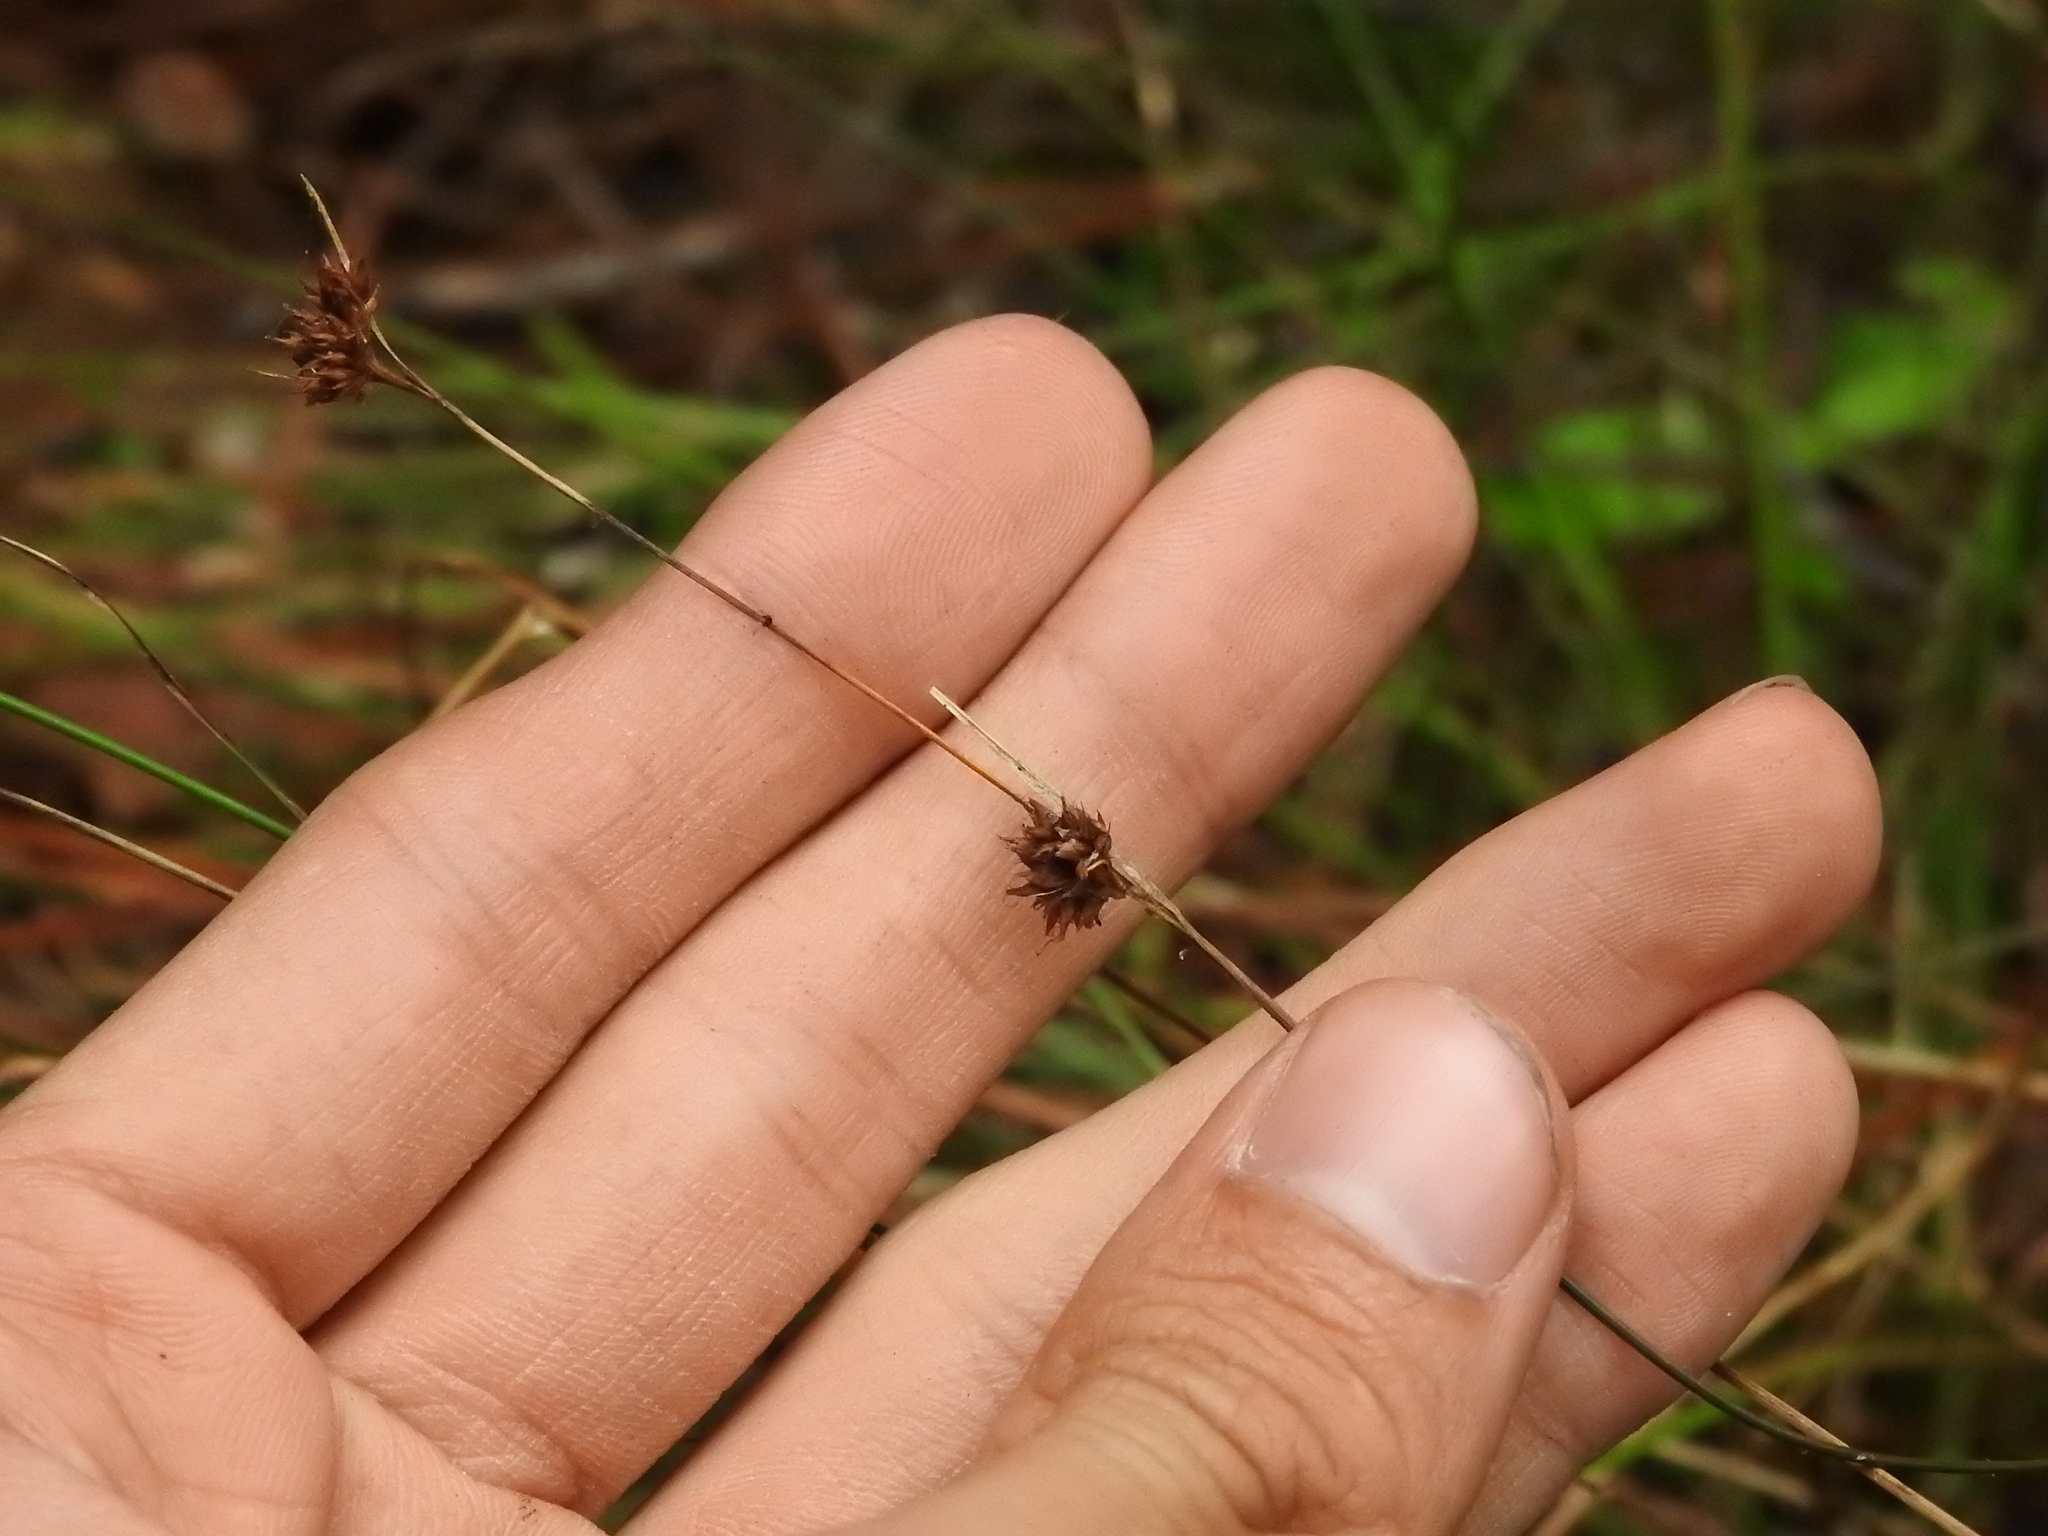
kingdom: Plantae
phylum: Tracheophyta
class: Liliopsida
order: Poales
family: Cyperaceae
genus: Rhynchospora
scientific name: Rhynchospora fascicularis
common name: Fascicled beak sedge
